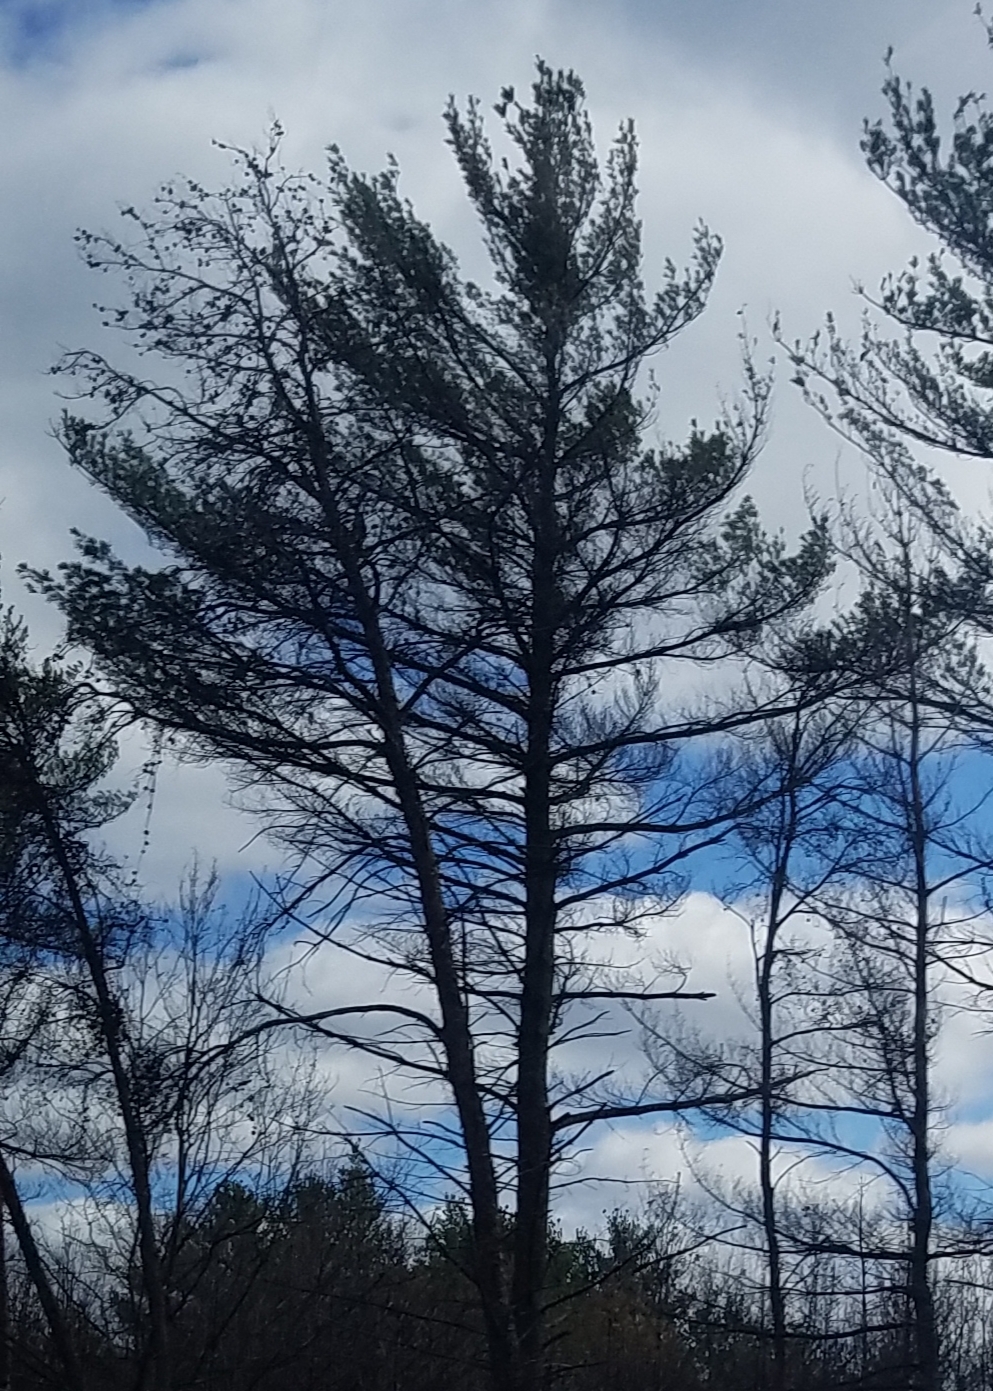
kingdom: Plantae
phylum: Tracheophyta
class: Pinopsida
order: Pinales
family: Pinaceae
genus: Pinus
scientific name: Pinus strobus
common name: Weymouth pine
